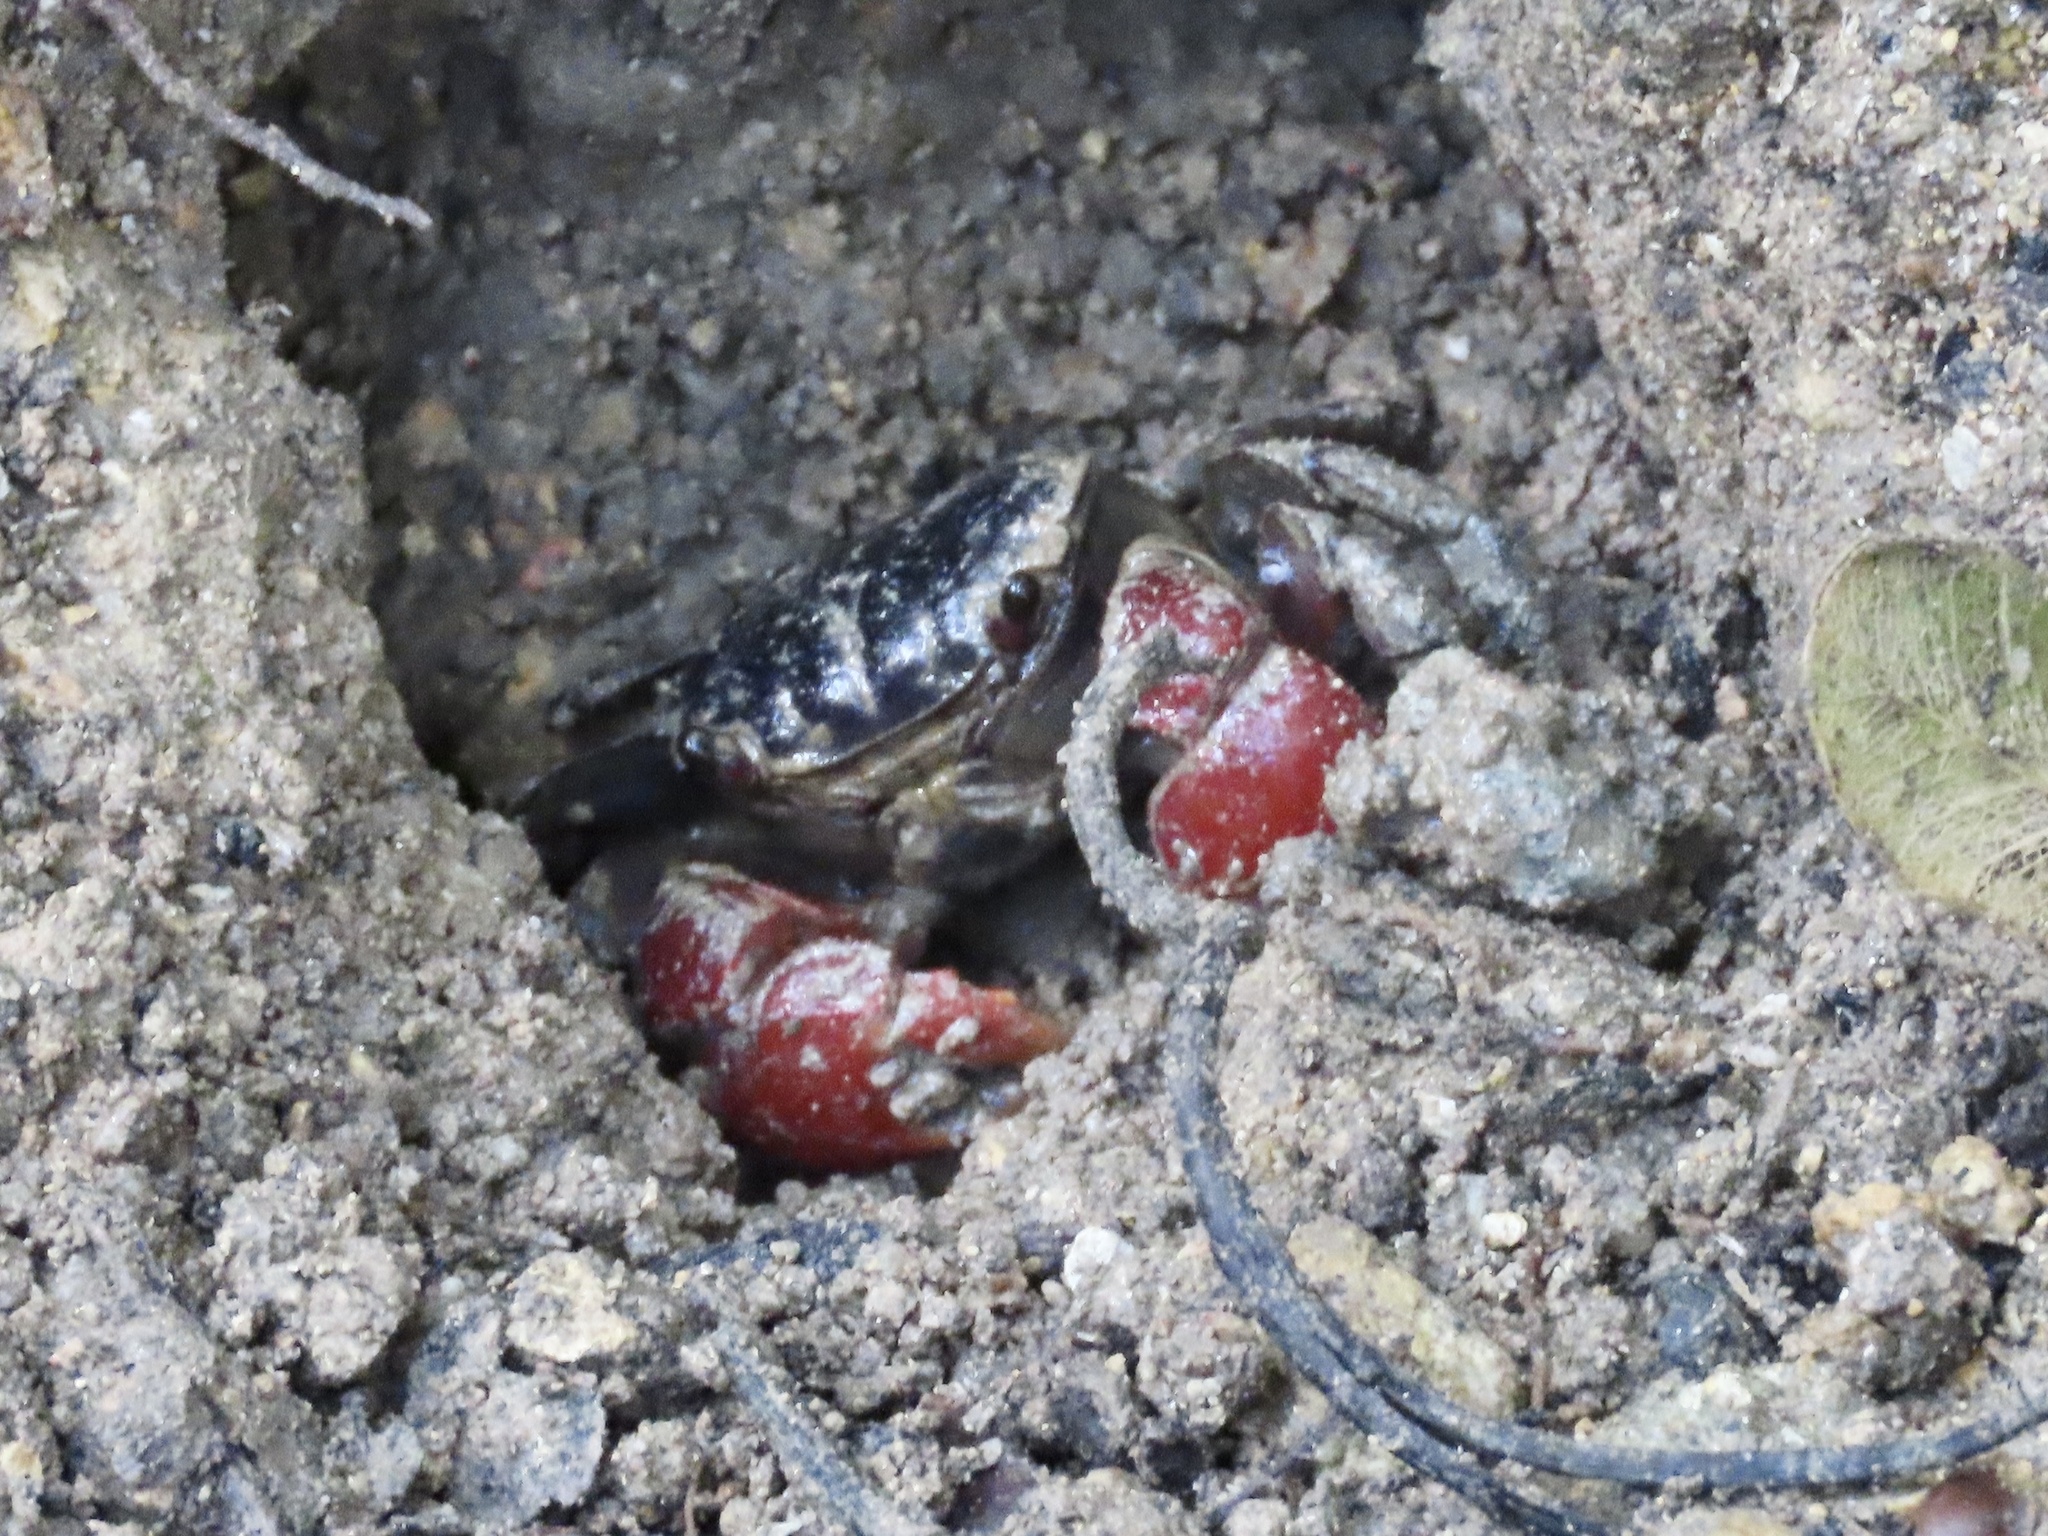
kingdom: Animalia
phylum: Arthropoda
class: Malacostraca
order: Decapoda
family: Sesarmidae
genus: Neosarmatium
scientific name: Neosarmatium indicum
